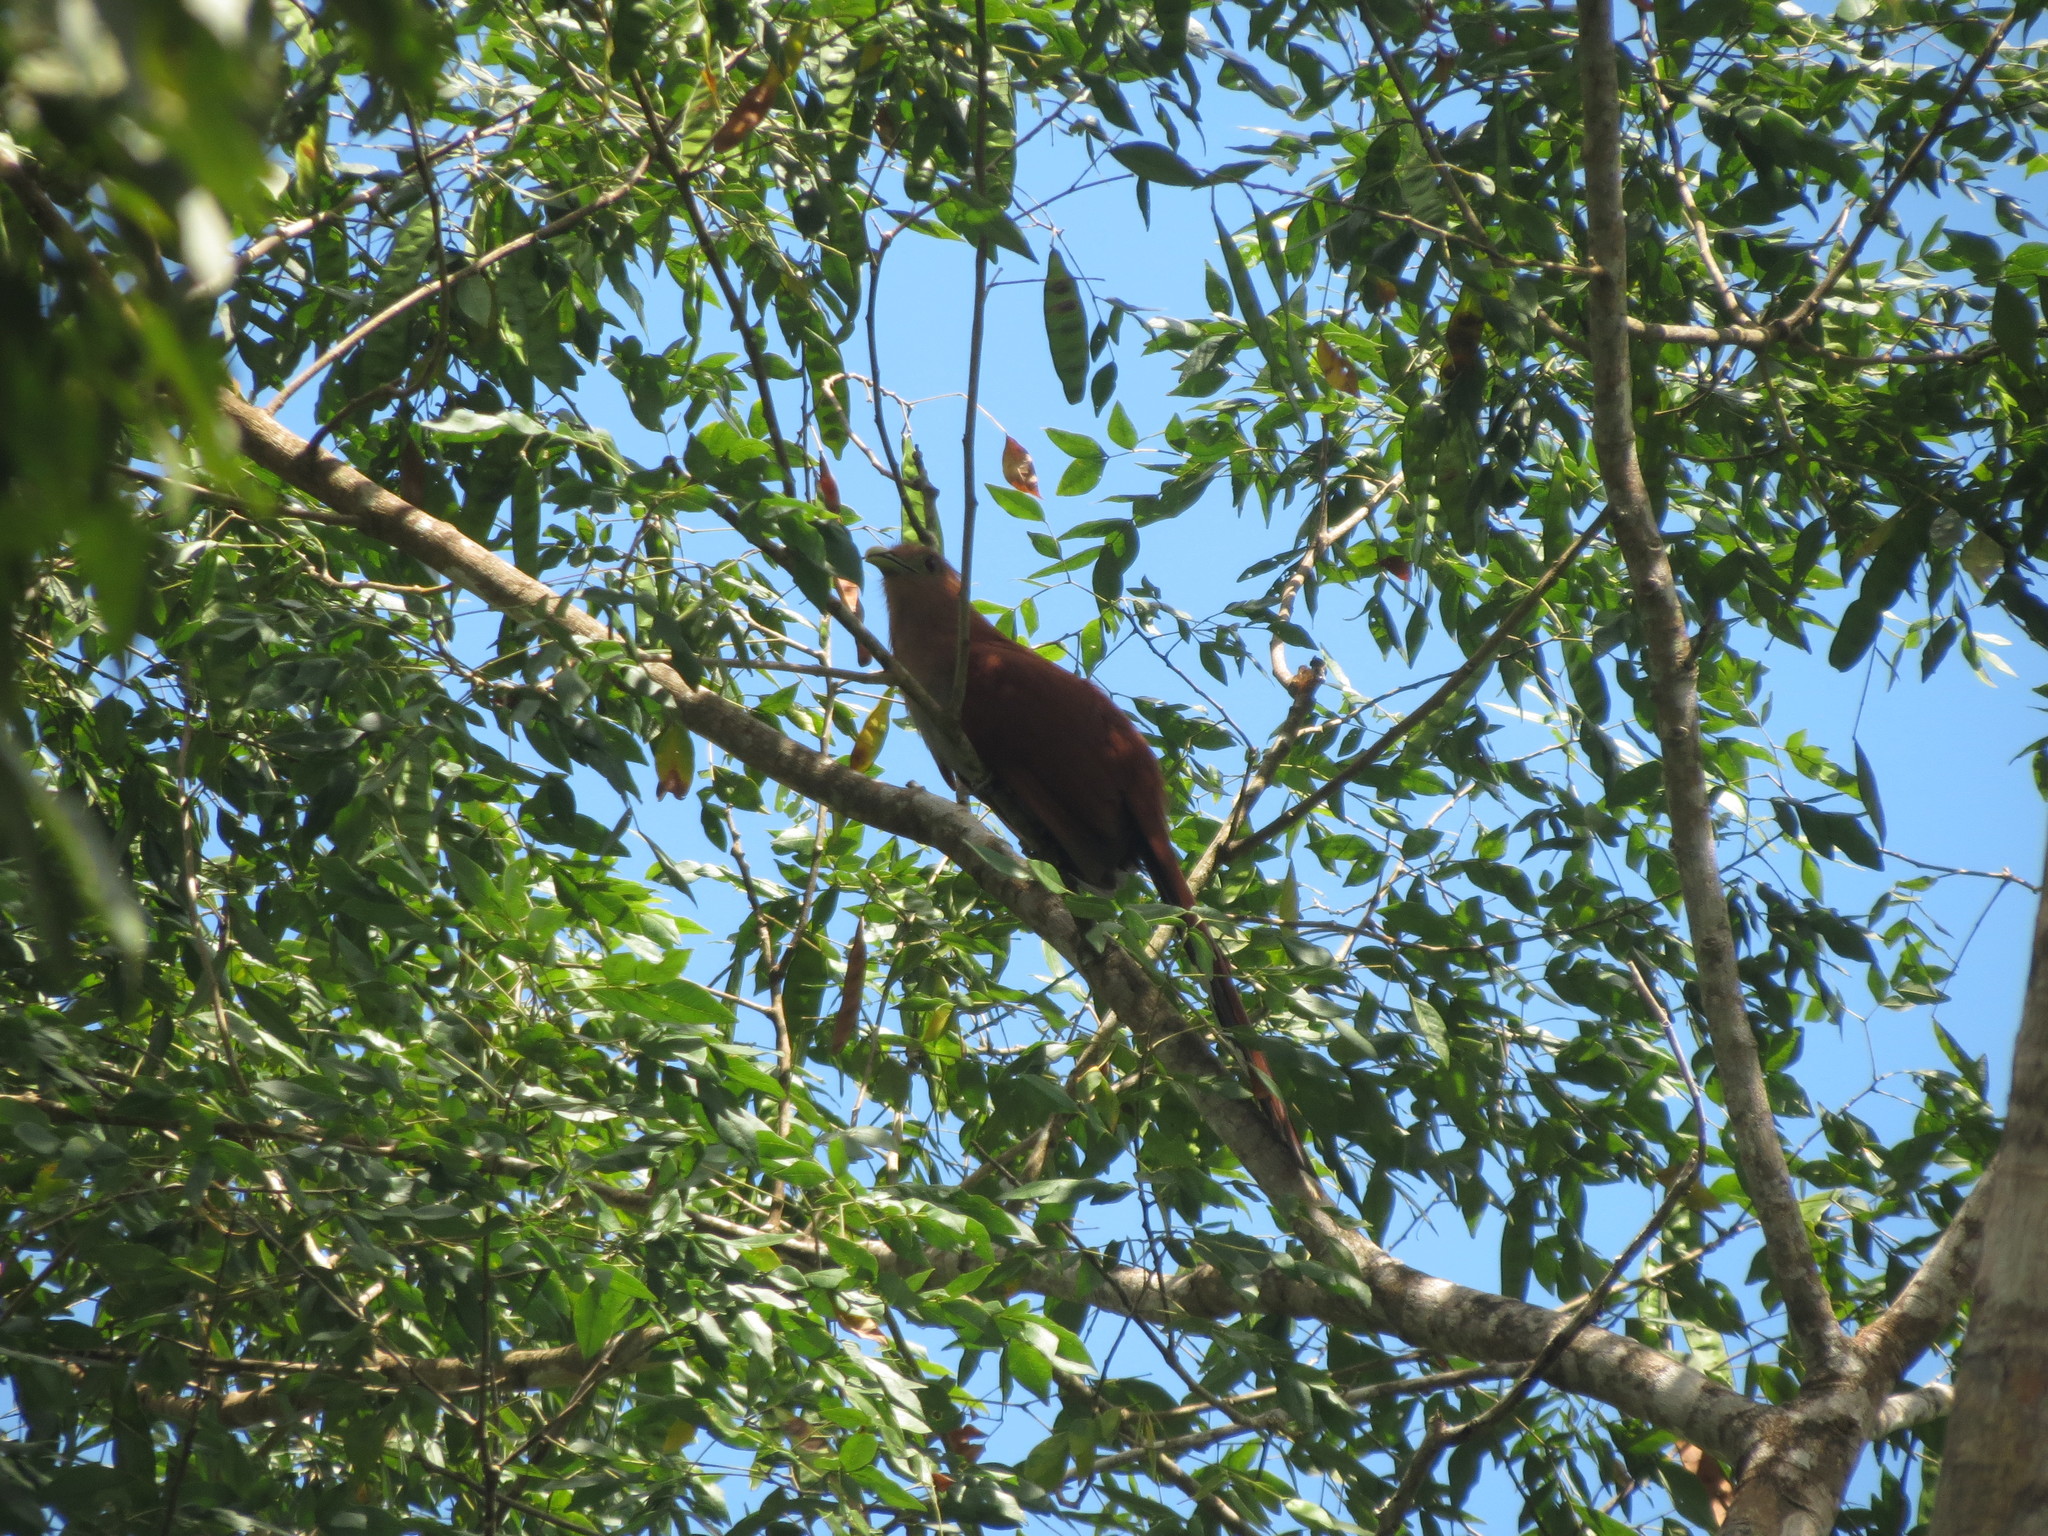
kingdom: Animalia
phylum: Chordata
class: Aves
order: Cuculiformes
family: Cuculidae
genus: Piaya
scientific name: Piaya cayana
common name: Squirrel cuckoo
